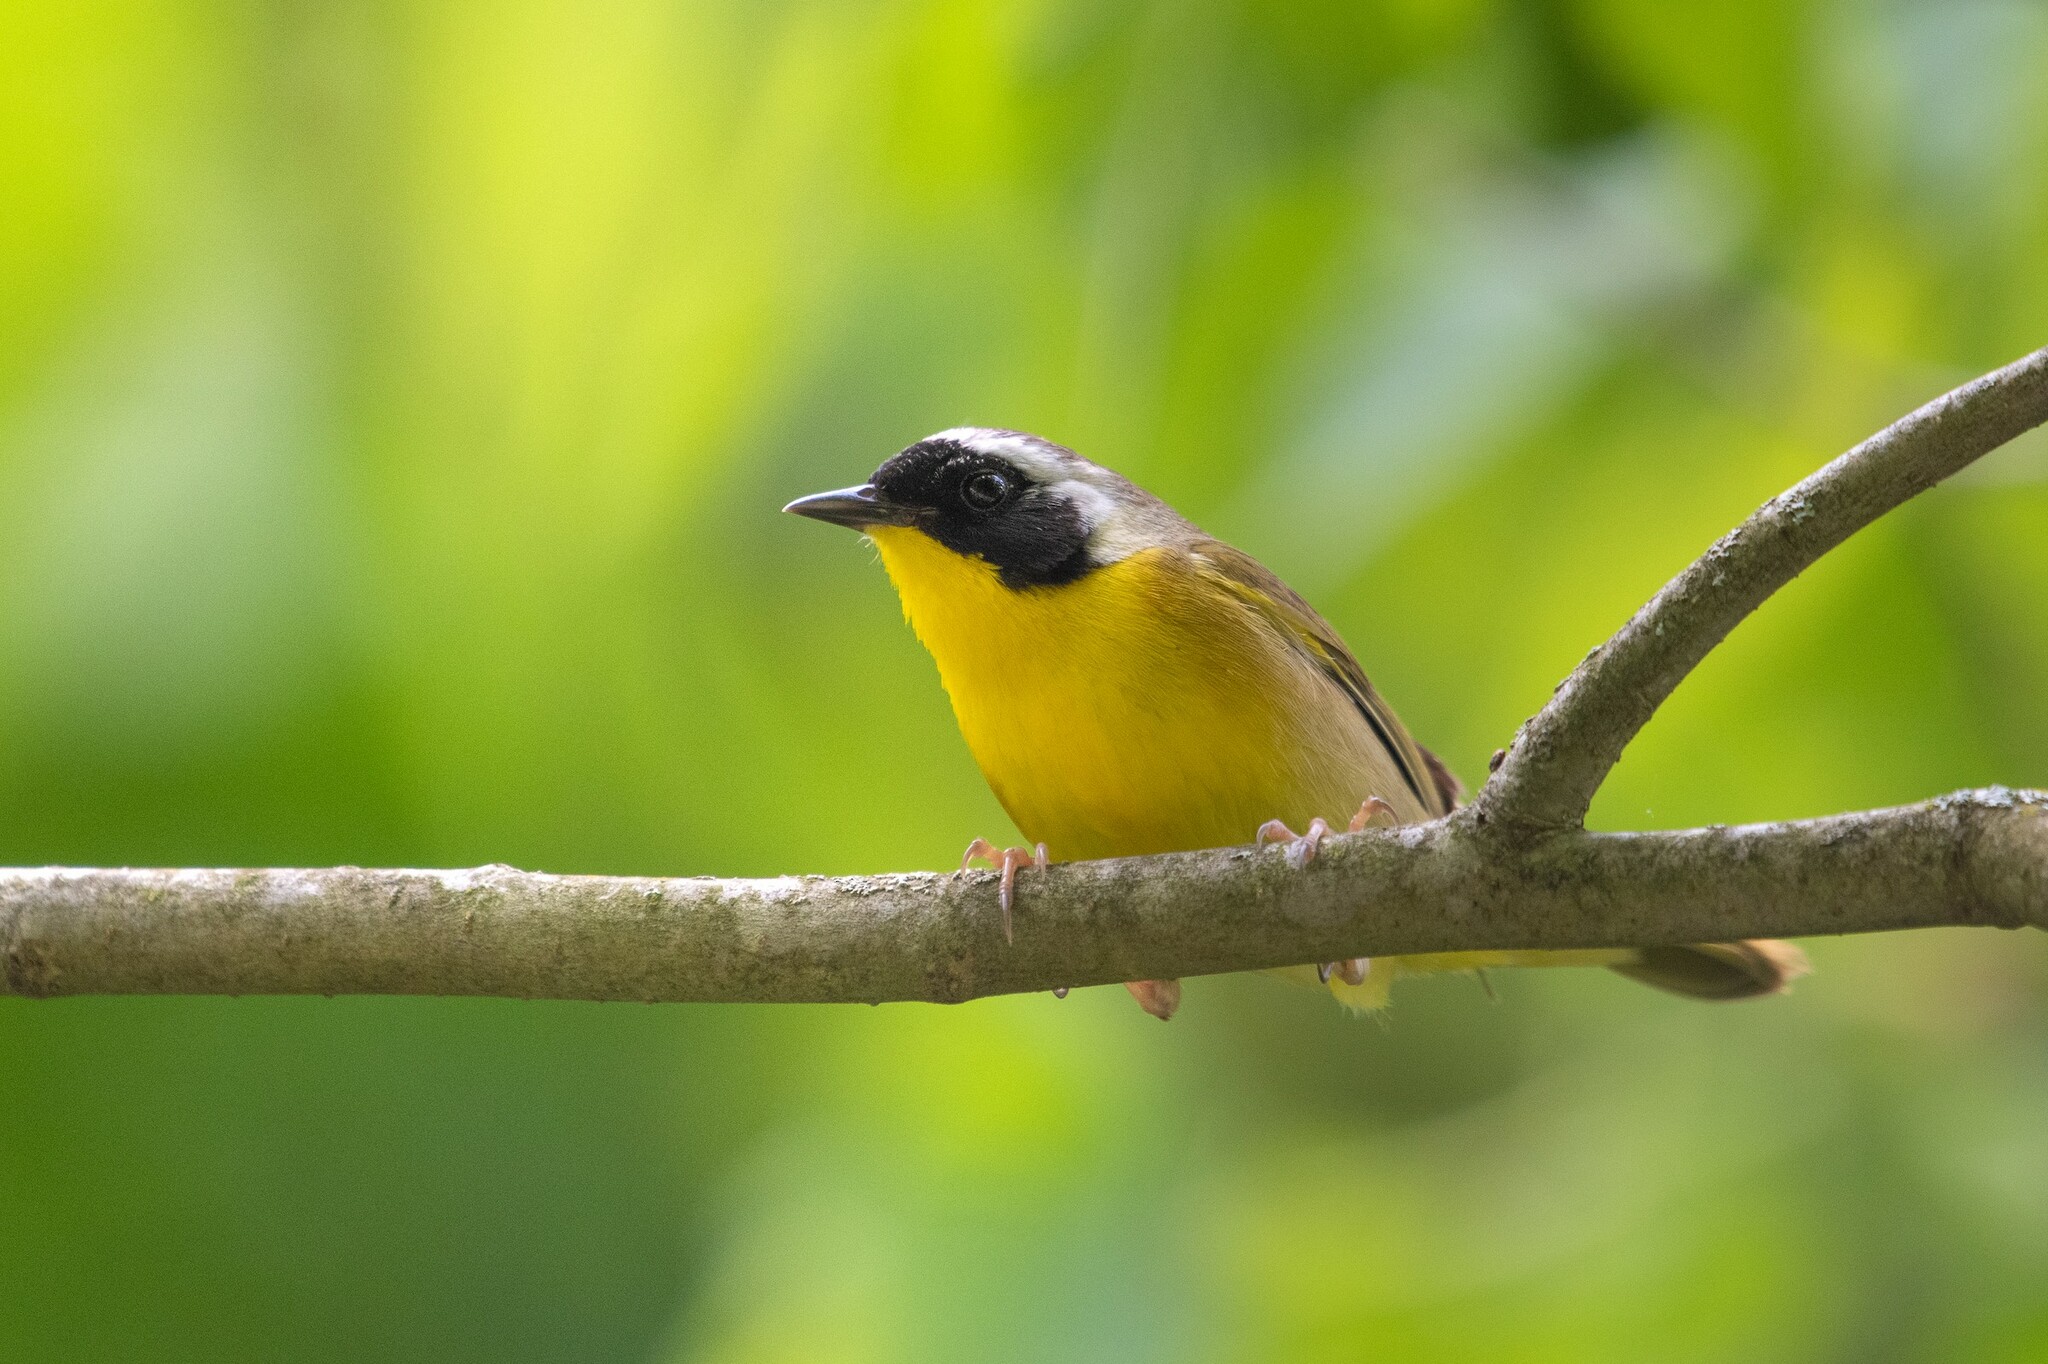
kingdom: Animalia
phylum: Chordata
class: Aves
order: Passeriformes
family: Parulidae
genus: Geothlypis
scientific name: Geothlypis trichas
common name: Common yellowthroat
